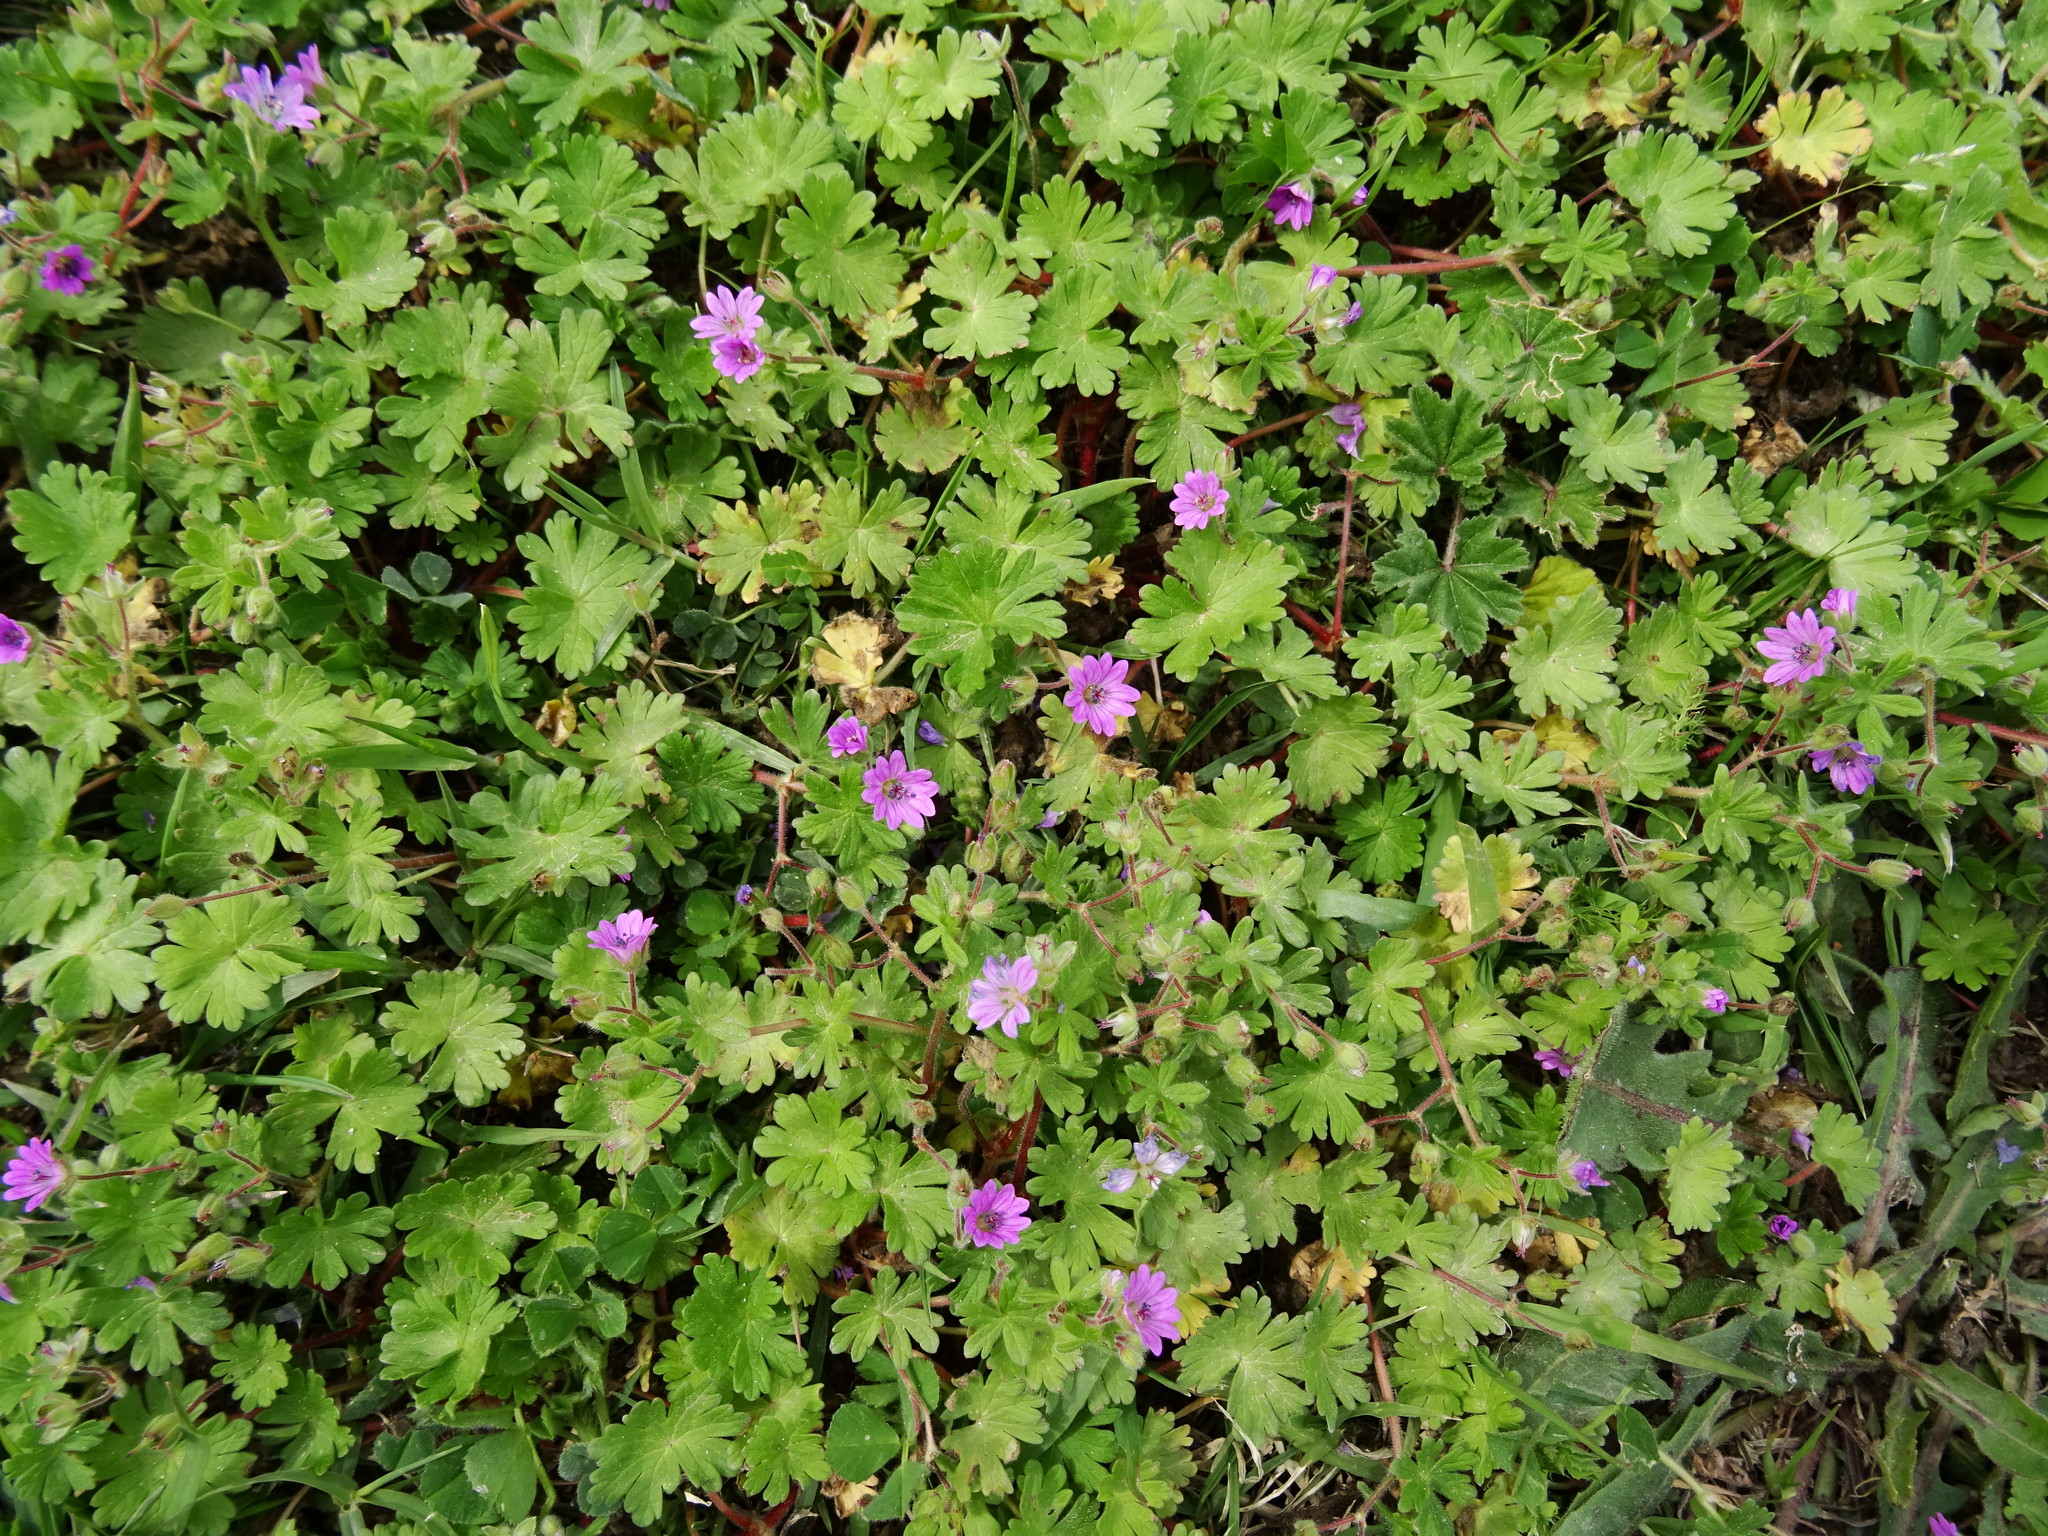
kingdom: Plantae
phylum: Tracheophyta
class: Magnoliopsida
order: Geraniales
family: Geraniaceae
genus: Geranium
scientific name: Geranium molle
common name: Dove's-foot crane's-bill
